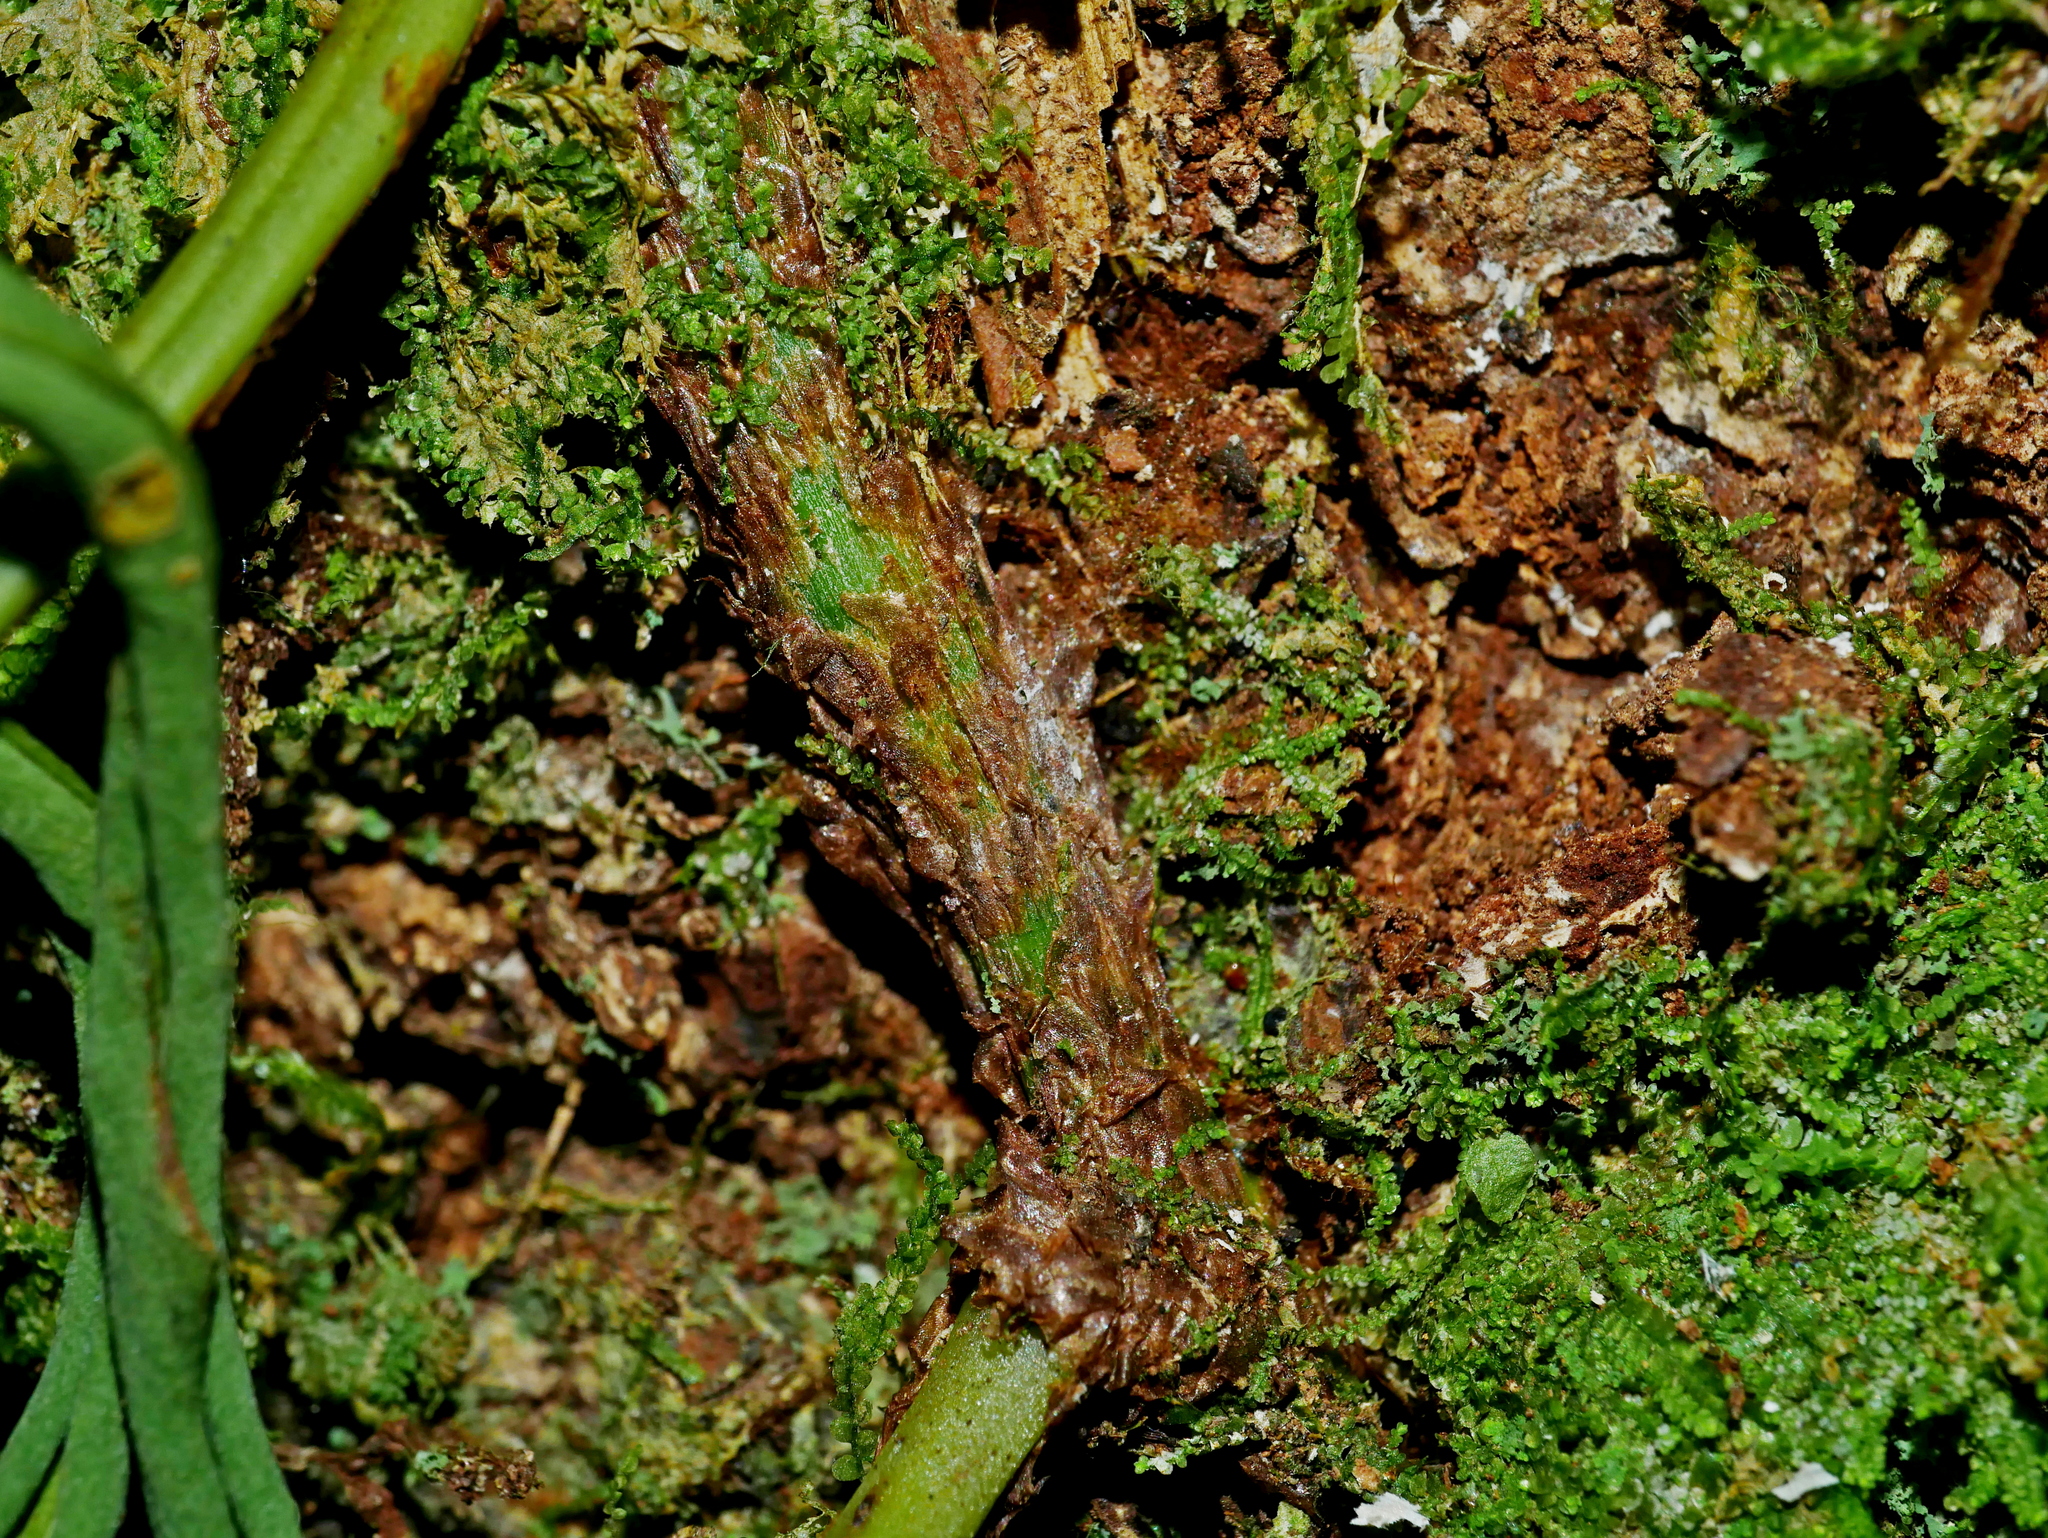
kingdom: Plantae
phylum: Tracheophyta
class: Polypodiopsida
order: Polypodiales
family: Polypodiaceae
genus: Lepisorus
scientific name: Lepisorus fortuni
